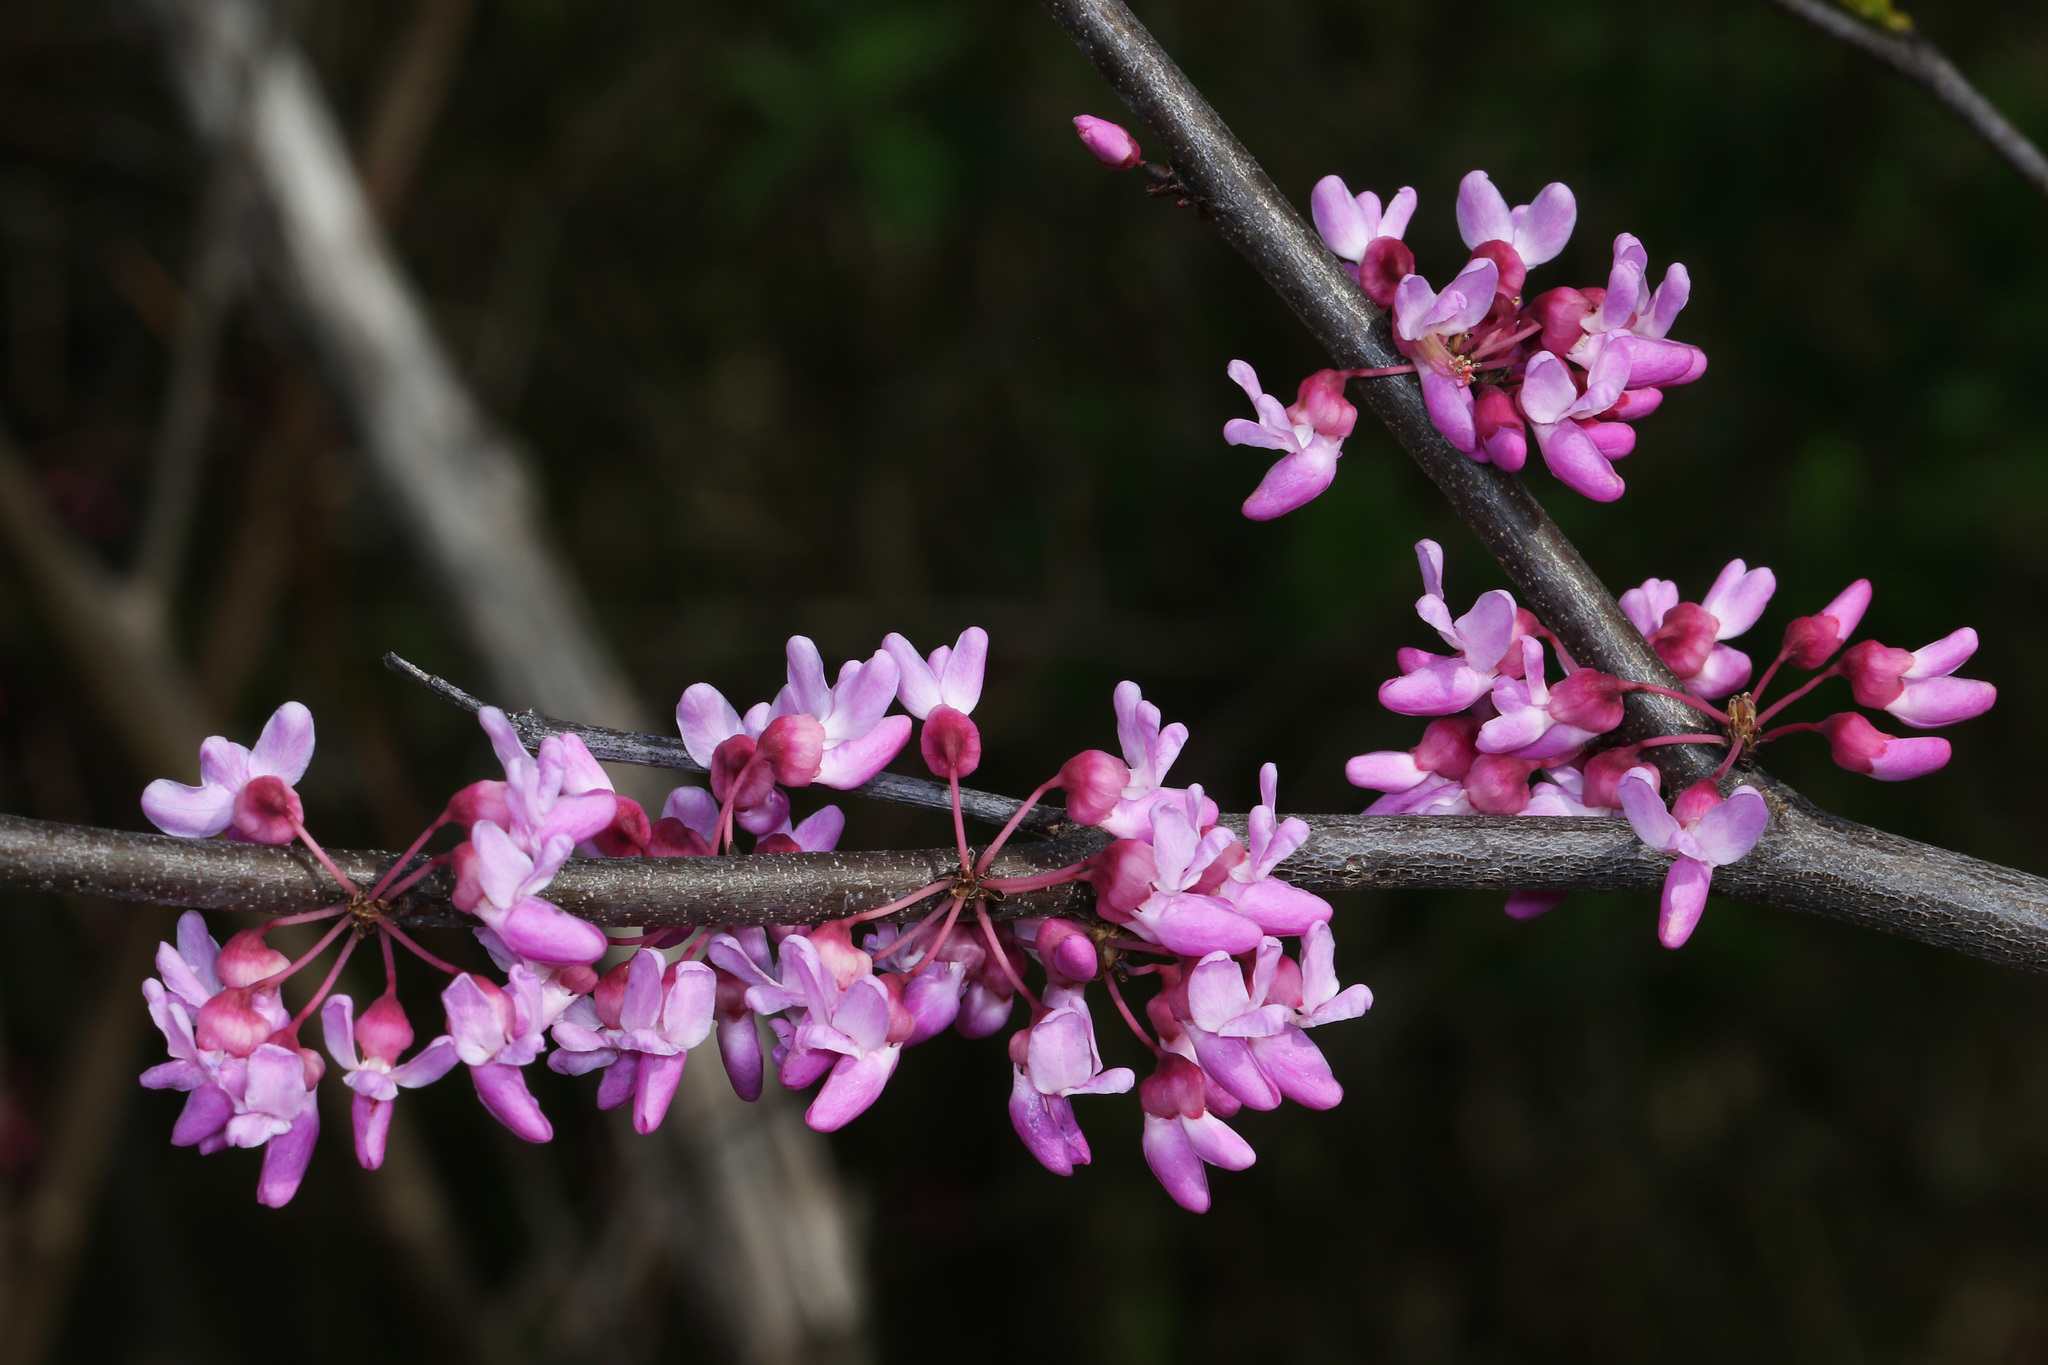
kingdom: Plantae
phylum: Tracheophyta
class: Magnoliopsida
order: Fabales
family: Fabaceae
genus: Cercis
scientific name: Cercis canadensis
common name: Eastern redbud
